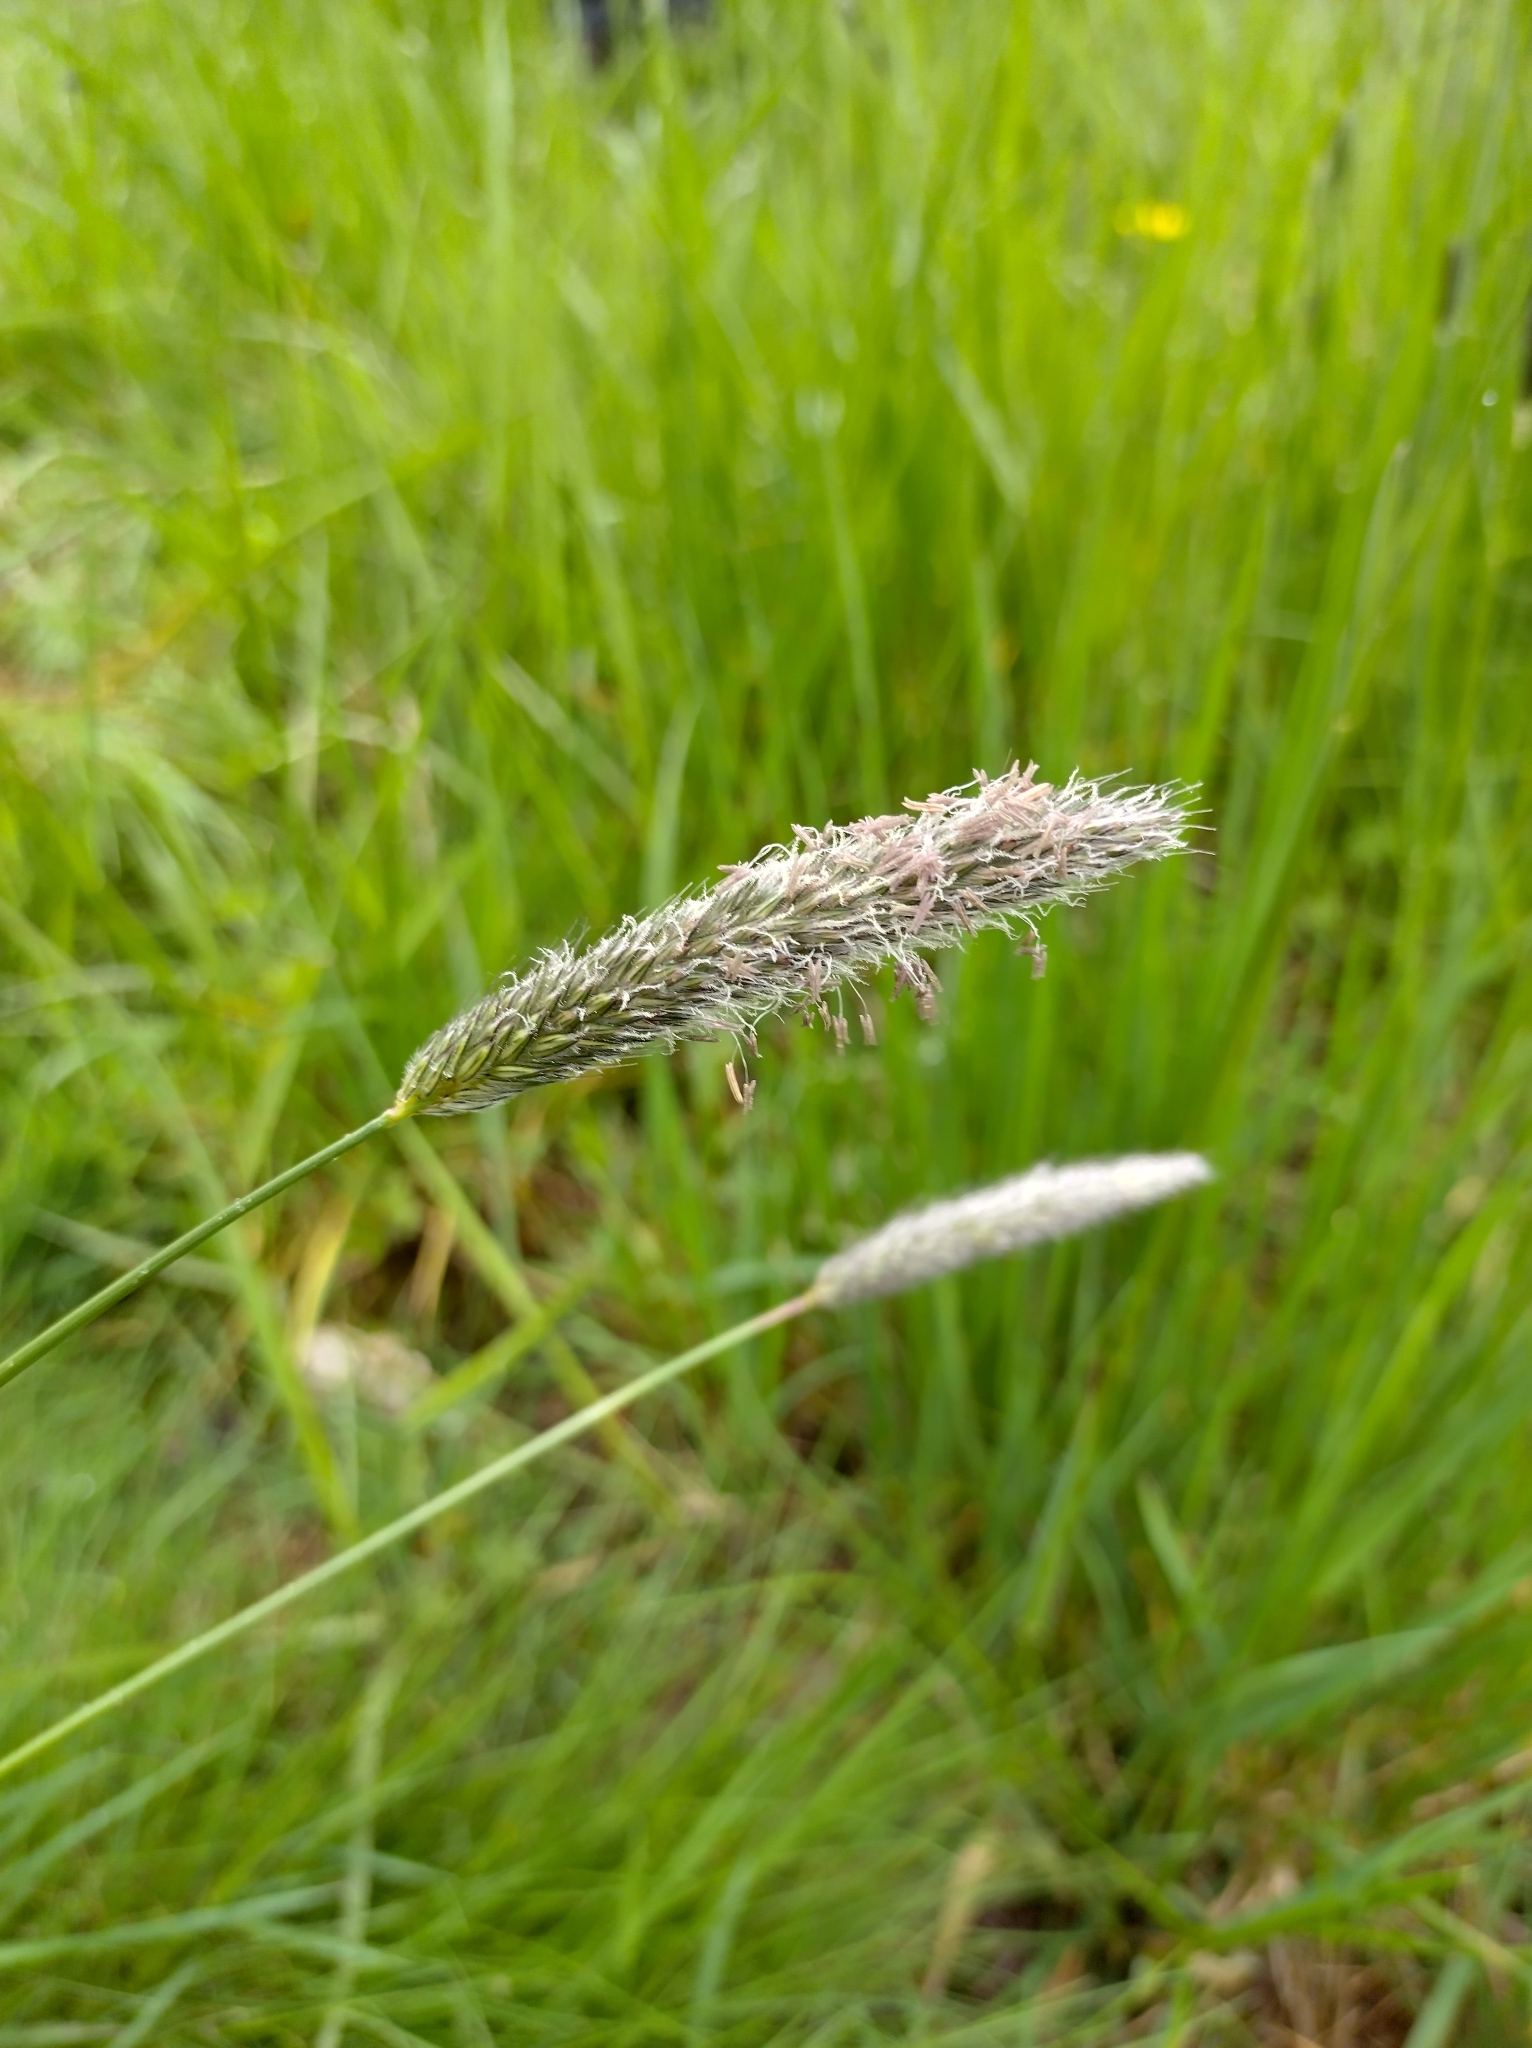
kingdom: Plantae
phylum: Tracheophyta
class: Liliopsida
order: Poales
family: Poaceae
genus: Alopecurus
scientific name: Alopecurus pratensis
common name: Meadow foxtail
